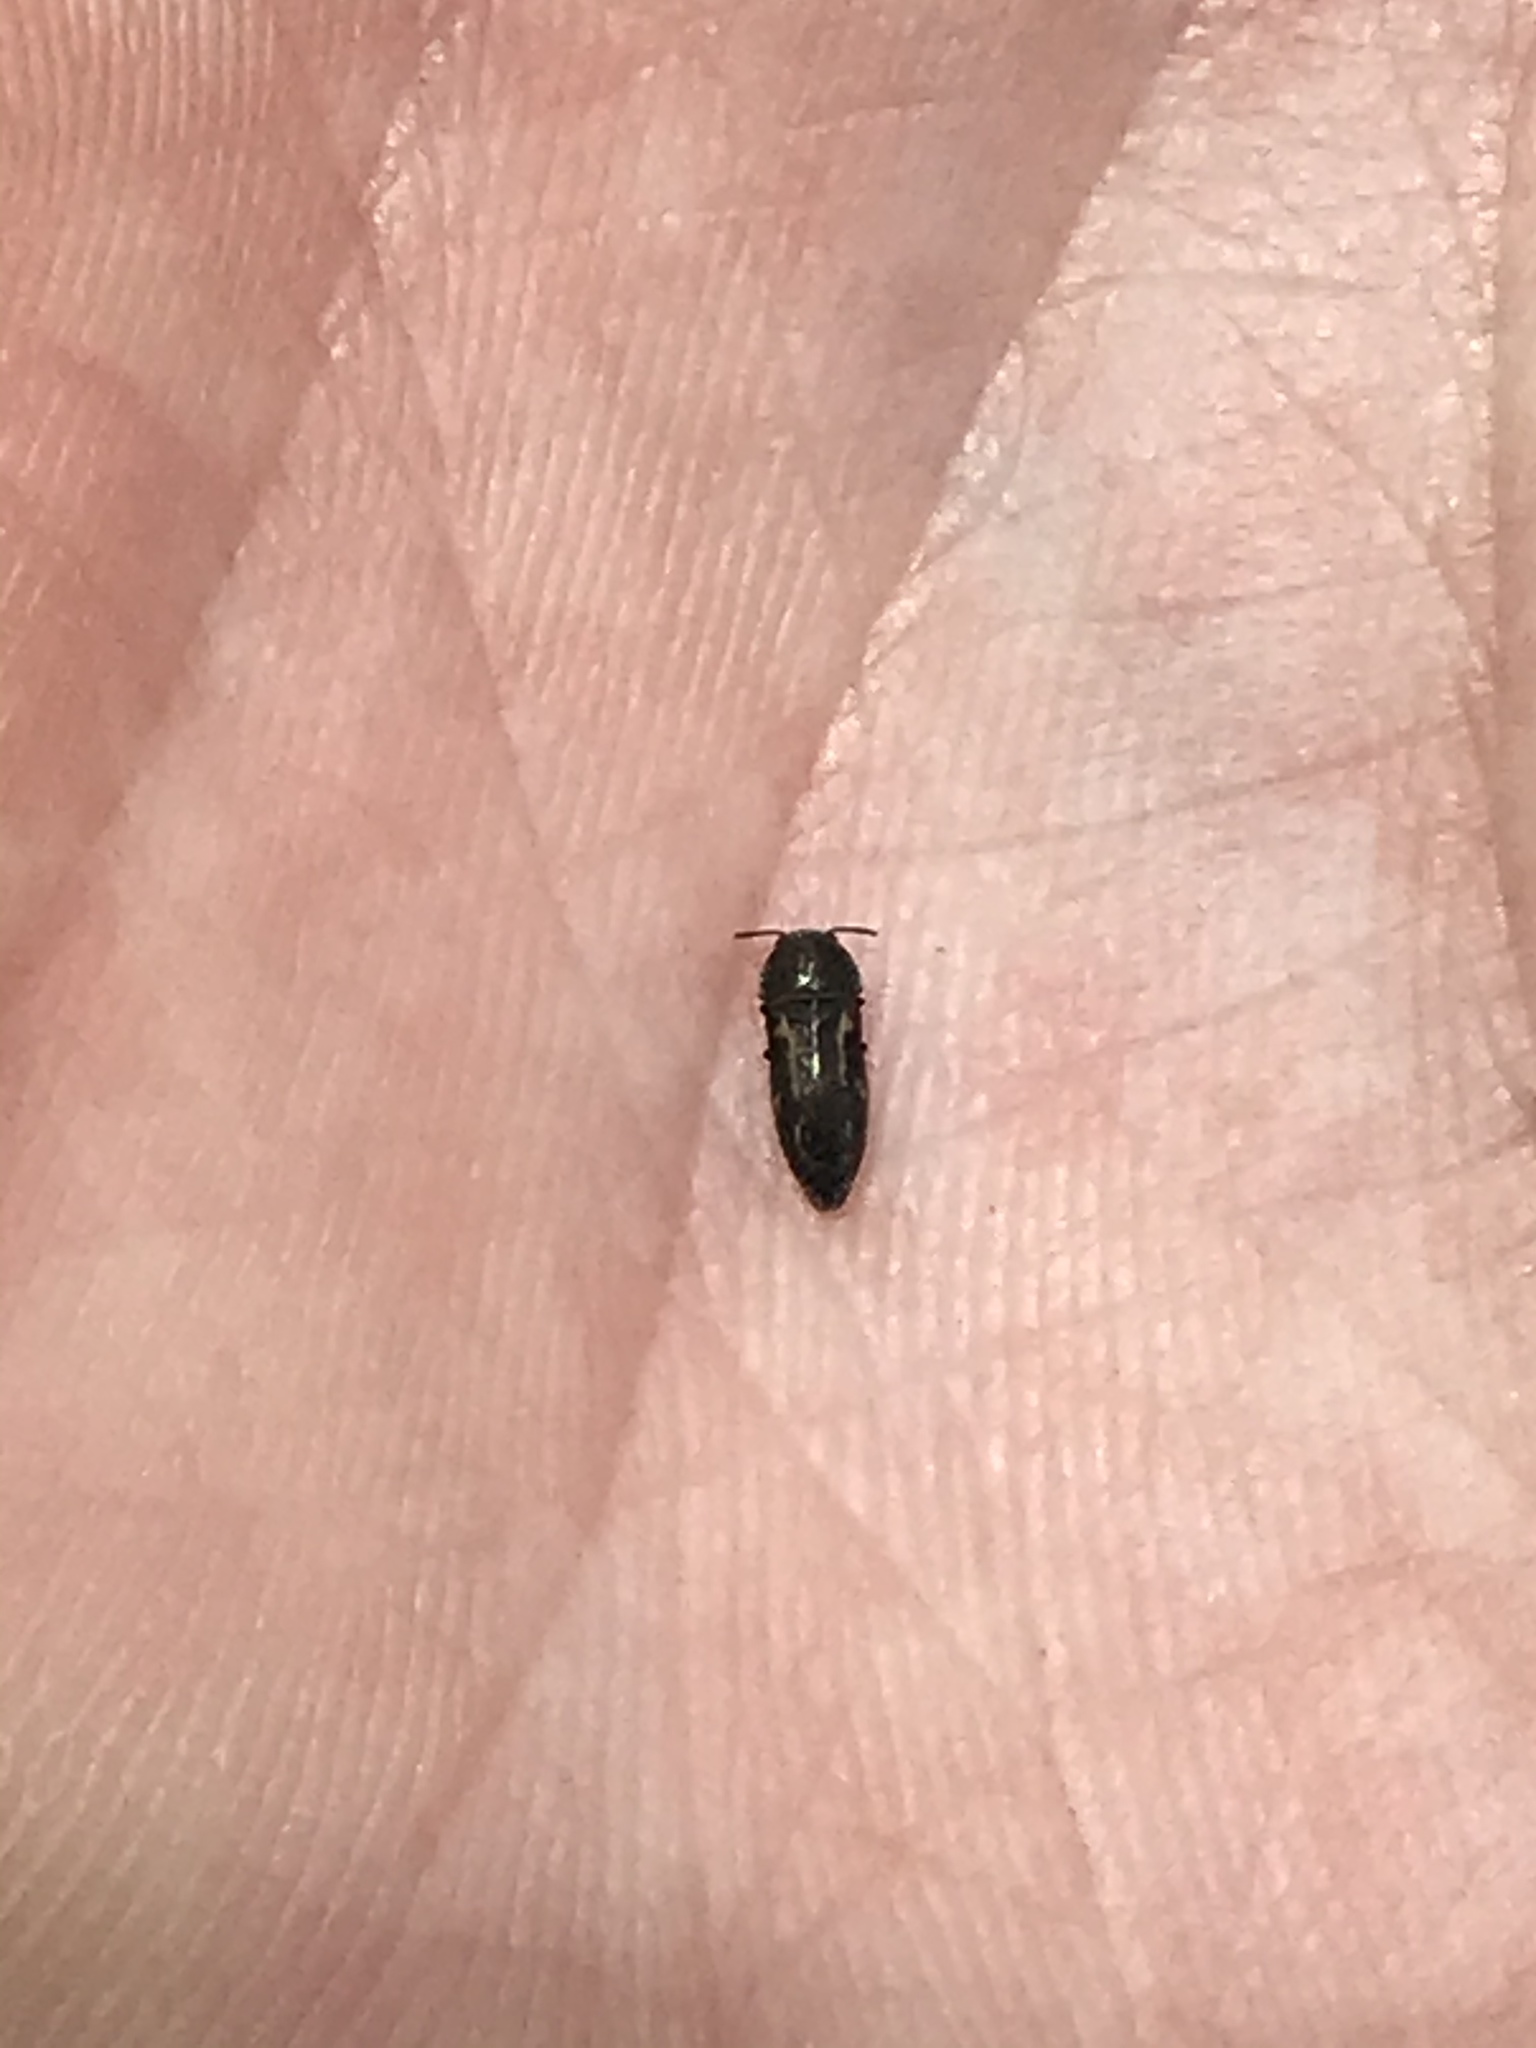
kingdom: Animalia
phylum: Arthropoda
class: Insecta
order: Coleoptera
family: Buprestidae
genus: Acmaeodera
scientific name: Acmaeodera neglecta
